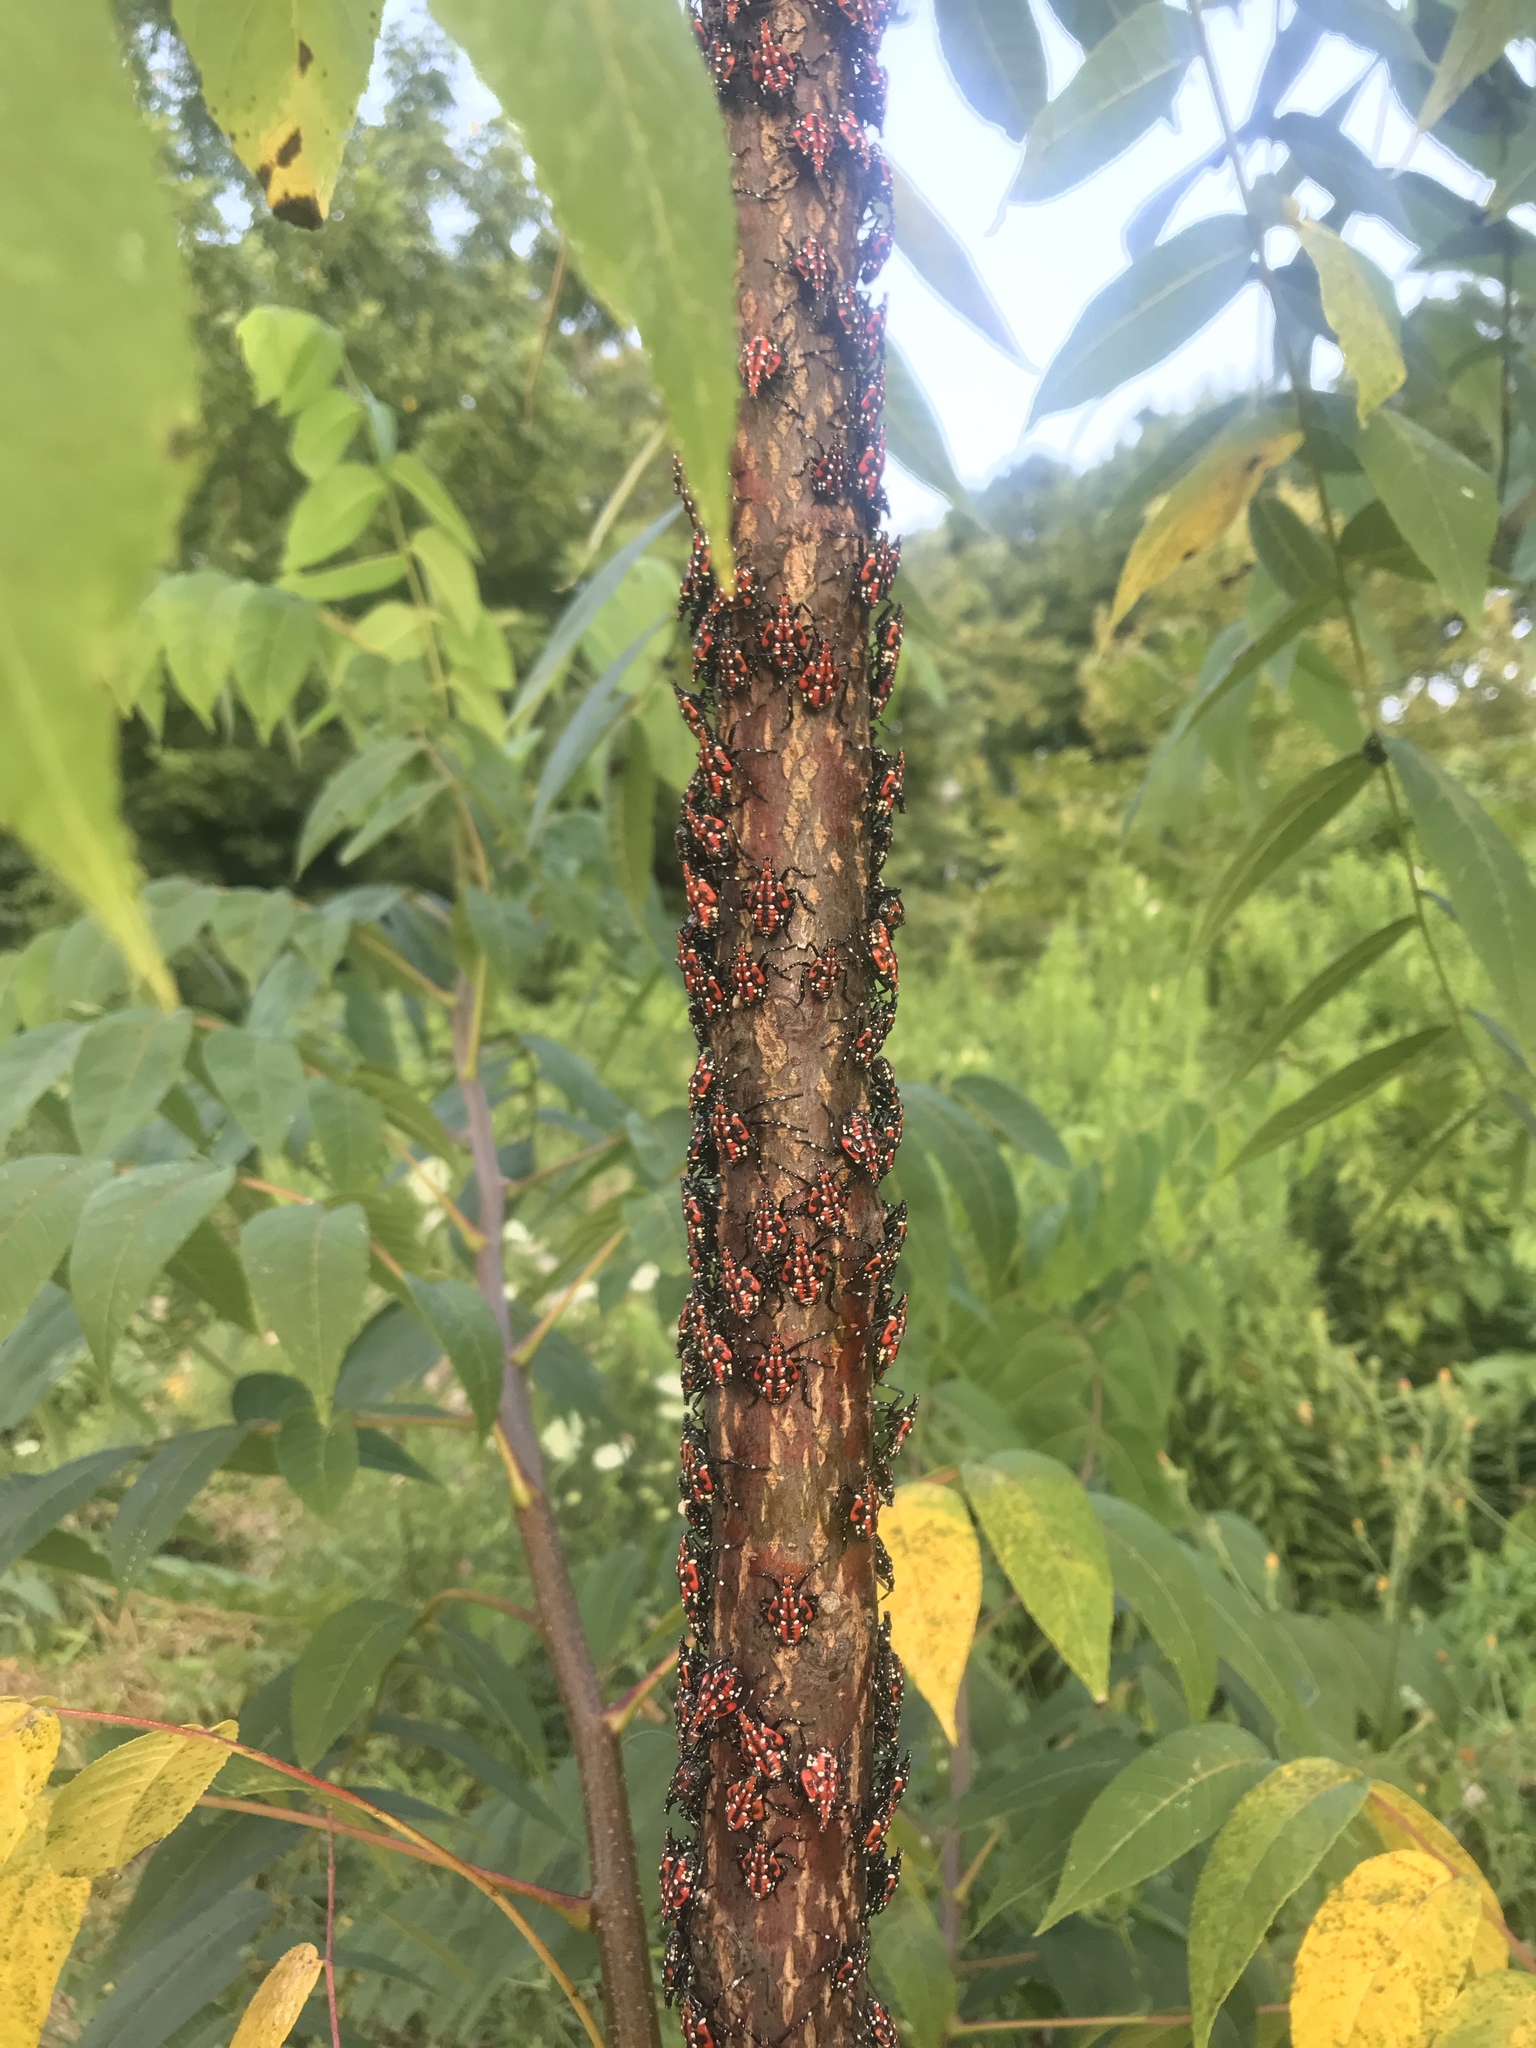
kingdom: Animalia
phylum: Arthropoda
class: Insecta
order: Hemiptera
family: Fulgoridae
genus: Lycorma
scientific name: Lycorma delicatula
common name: Spotted lanternfly
